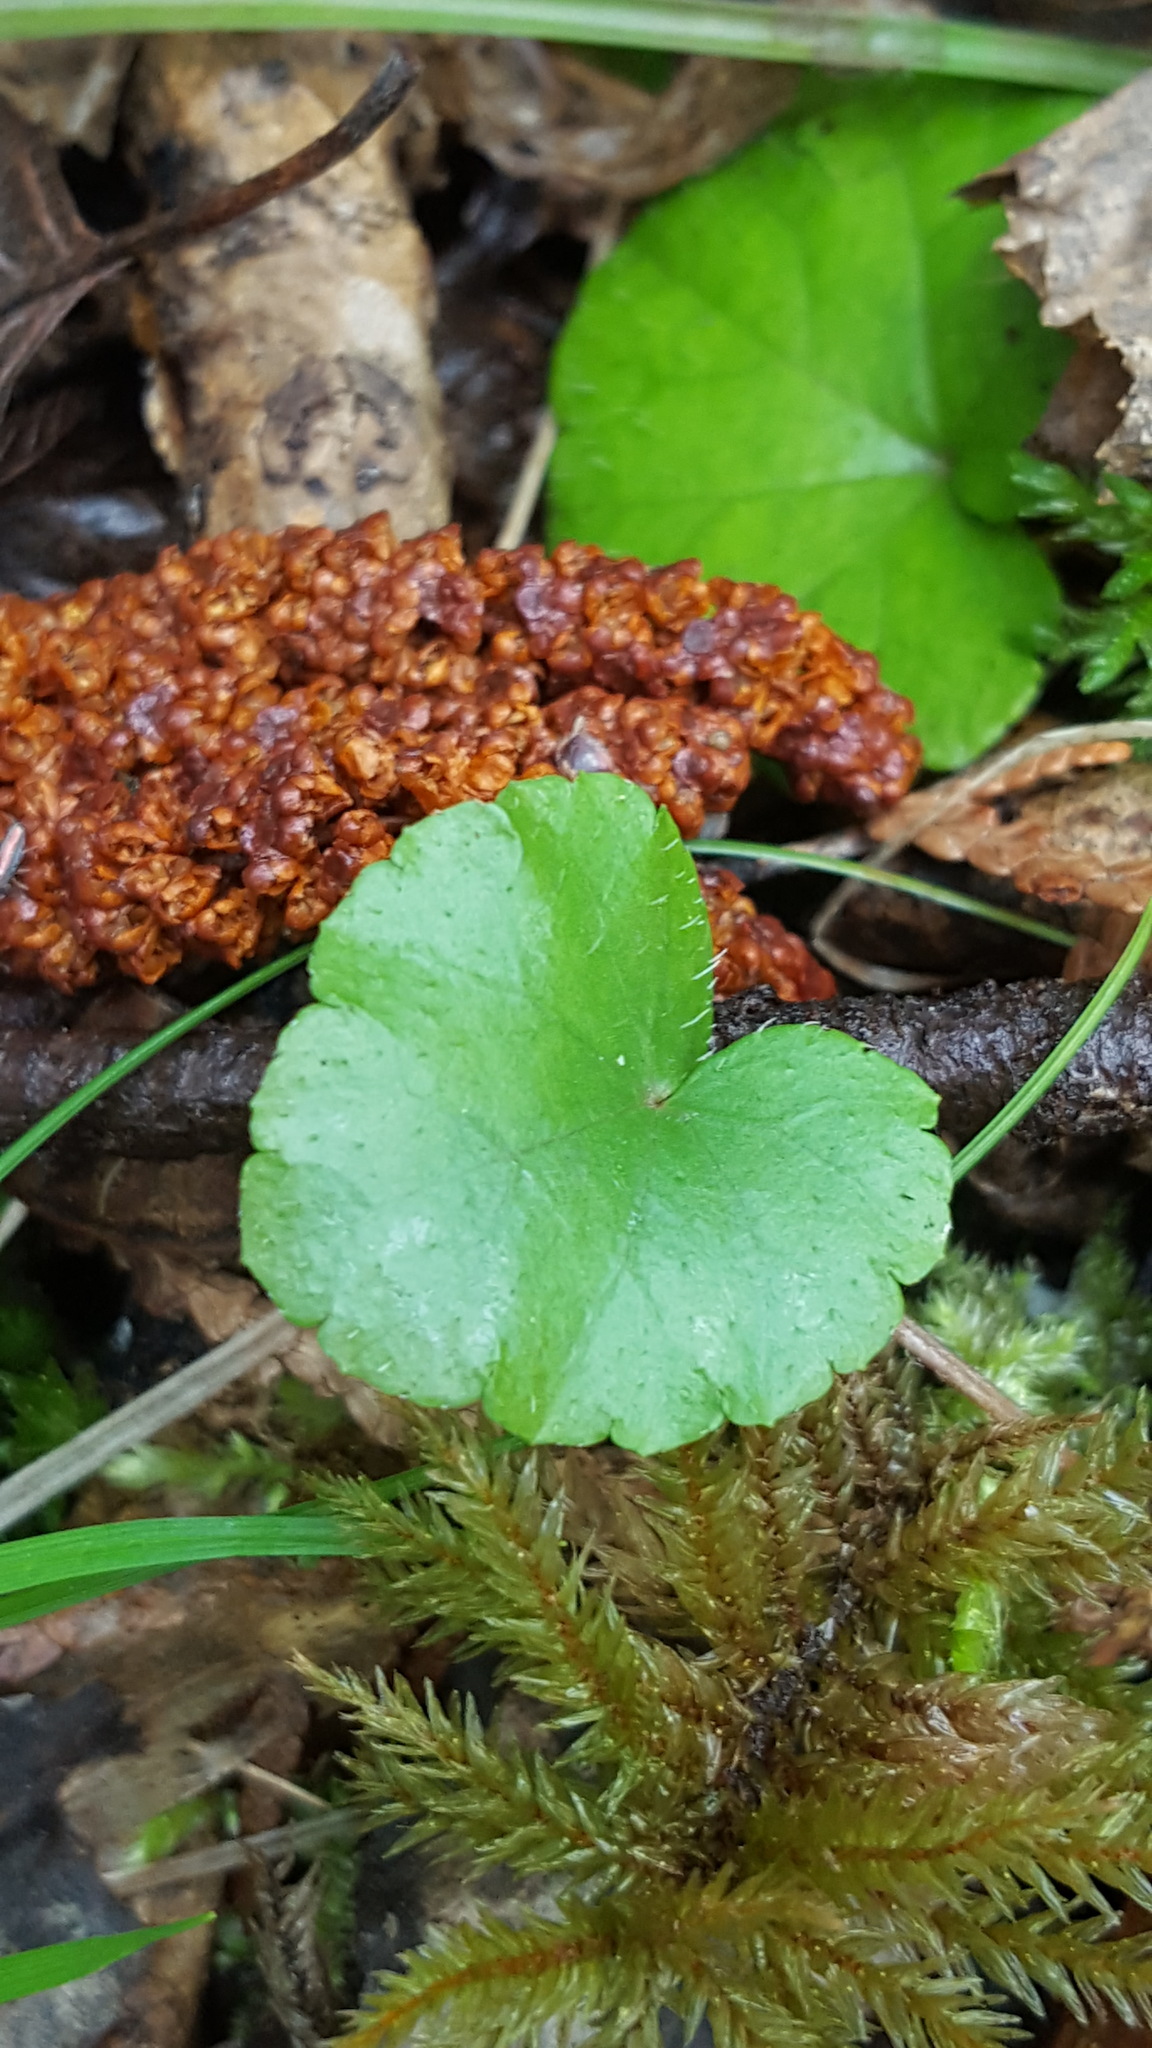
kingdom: Plantae
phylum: Tracheophyta
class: Magnoliopsida
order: Saxifragales
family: Saxifragaceae
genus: Mitella
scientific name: Mitella nuda
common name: Bare-stemmed bishop's-cap
